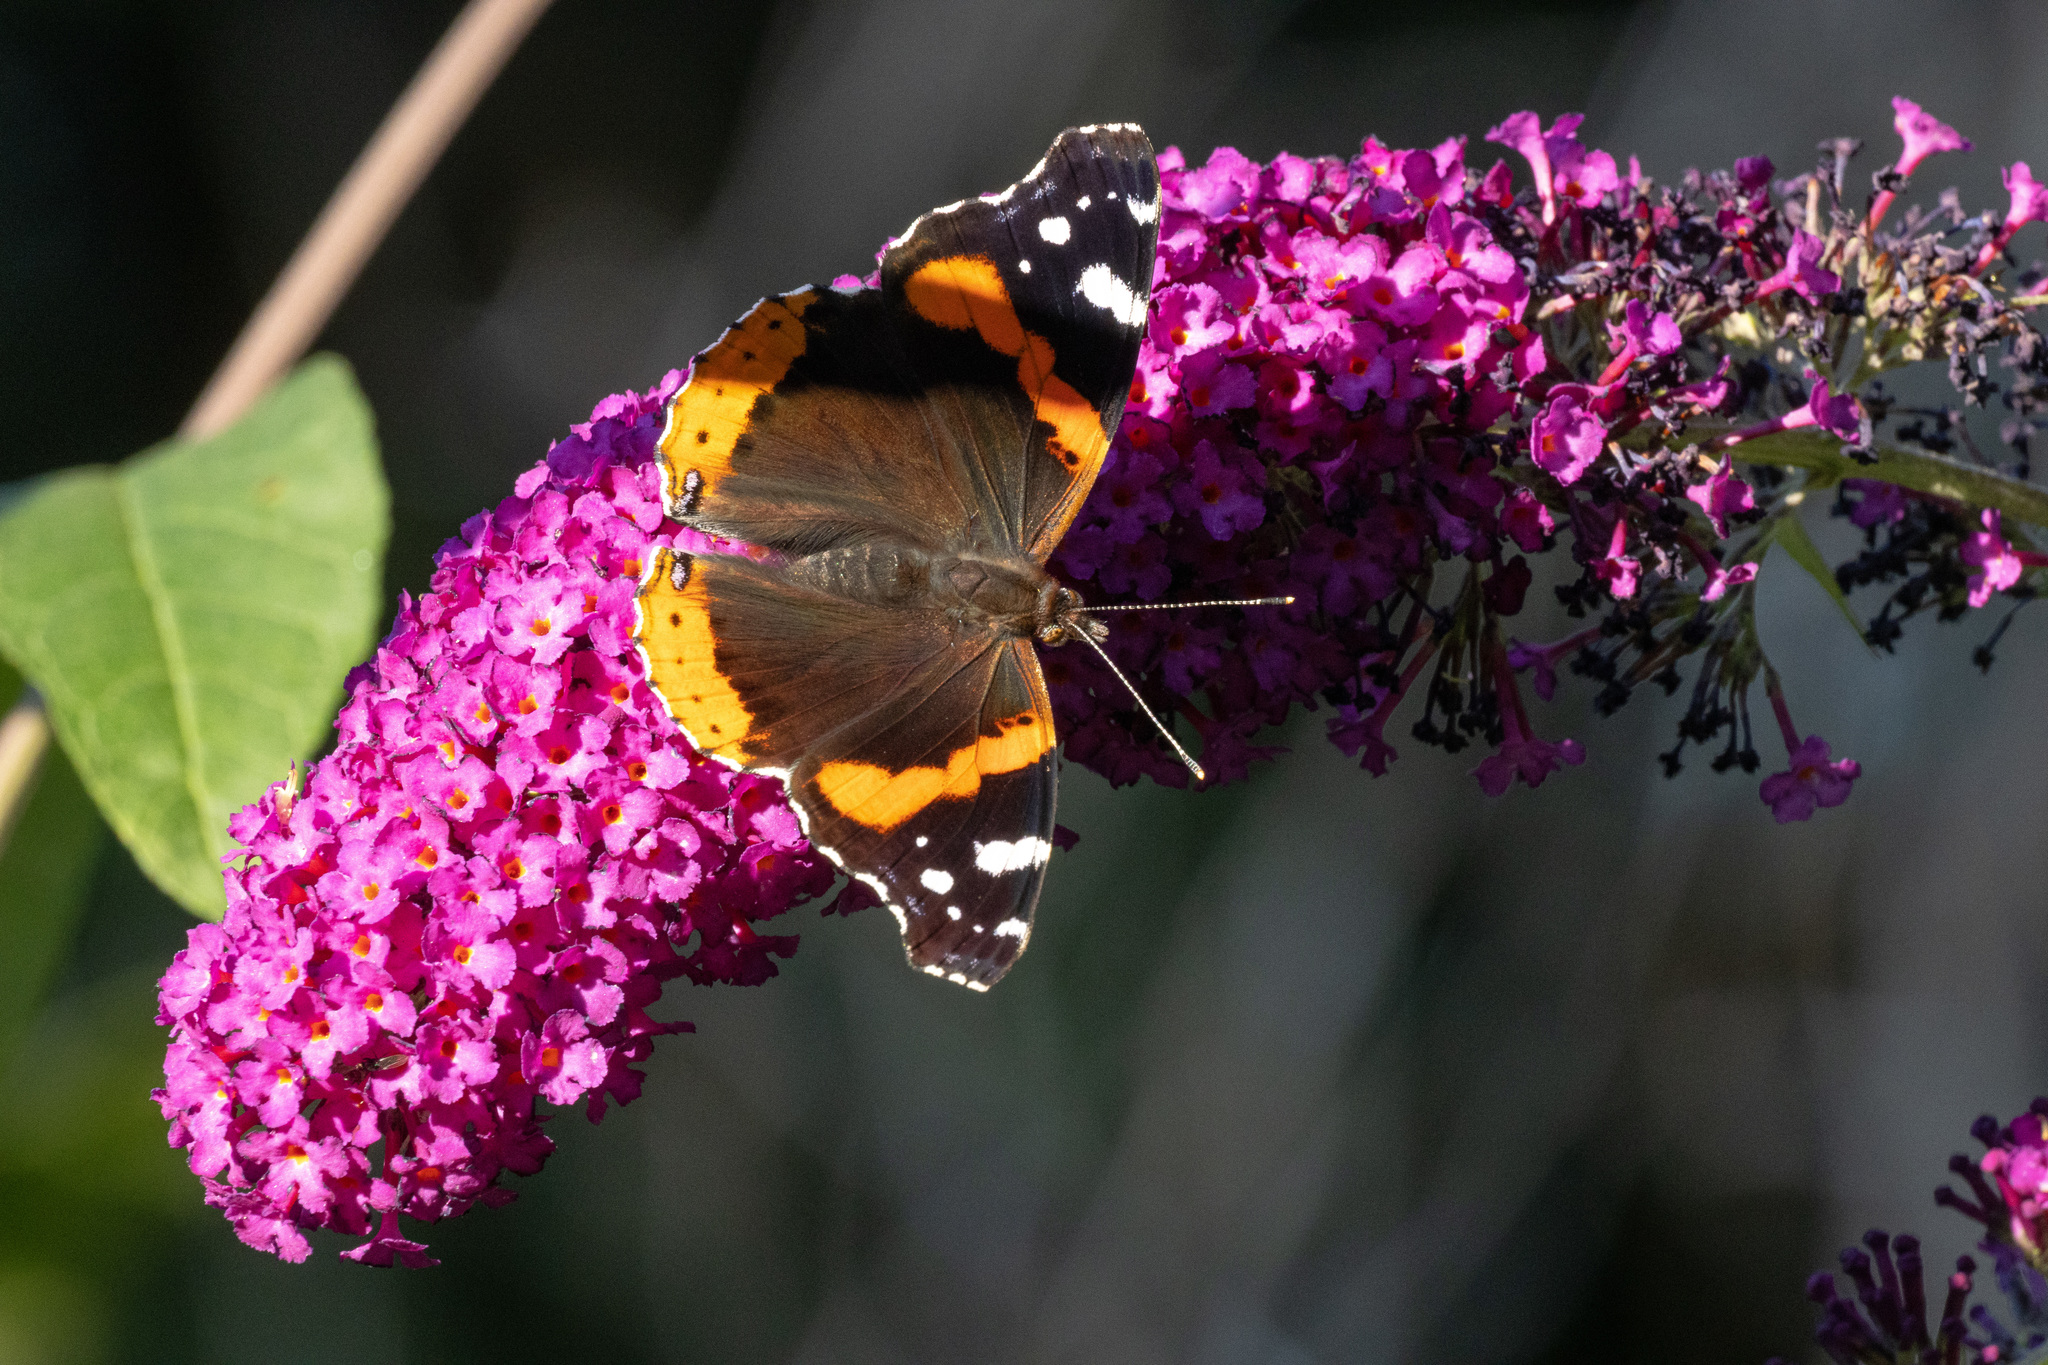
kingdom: Animalia
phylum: Arthropoda
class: Insecta
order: Lepidoptera
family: Nymphalidae
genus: Vanessa
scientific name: Vanessa atalanta
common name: Red admiral
